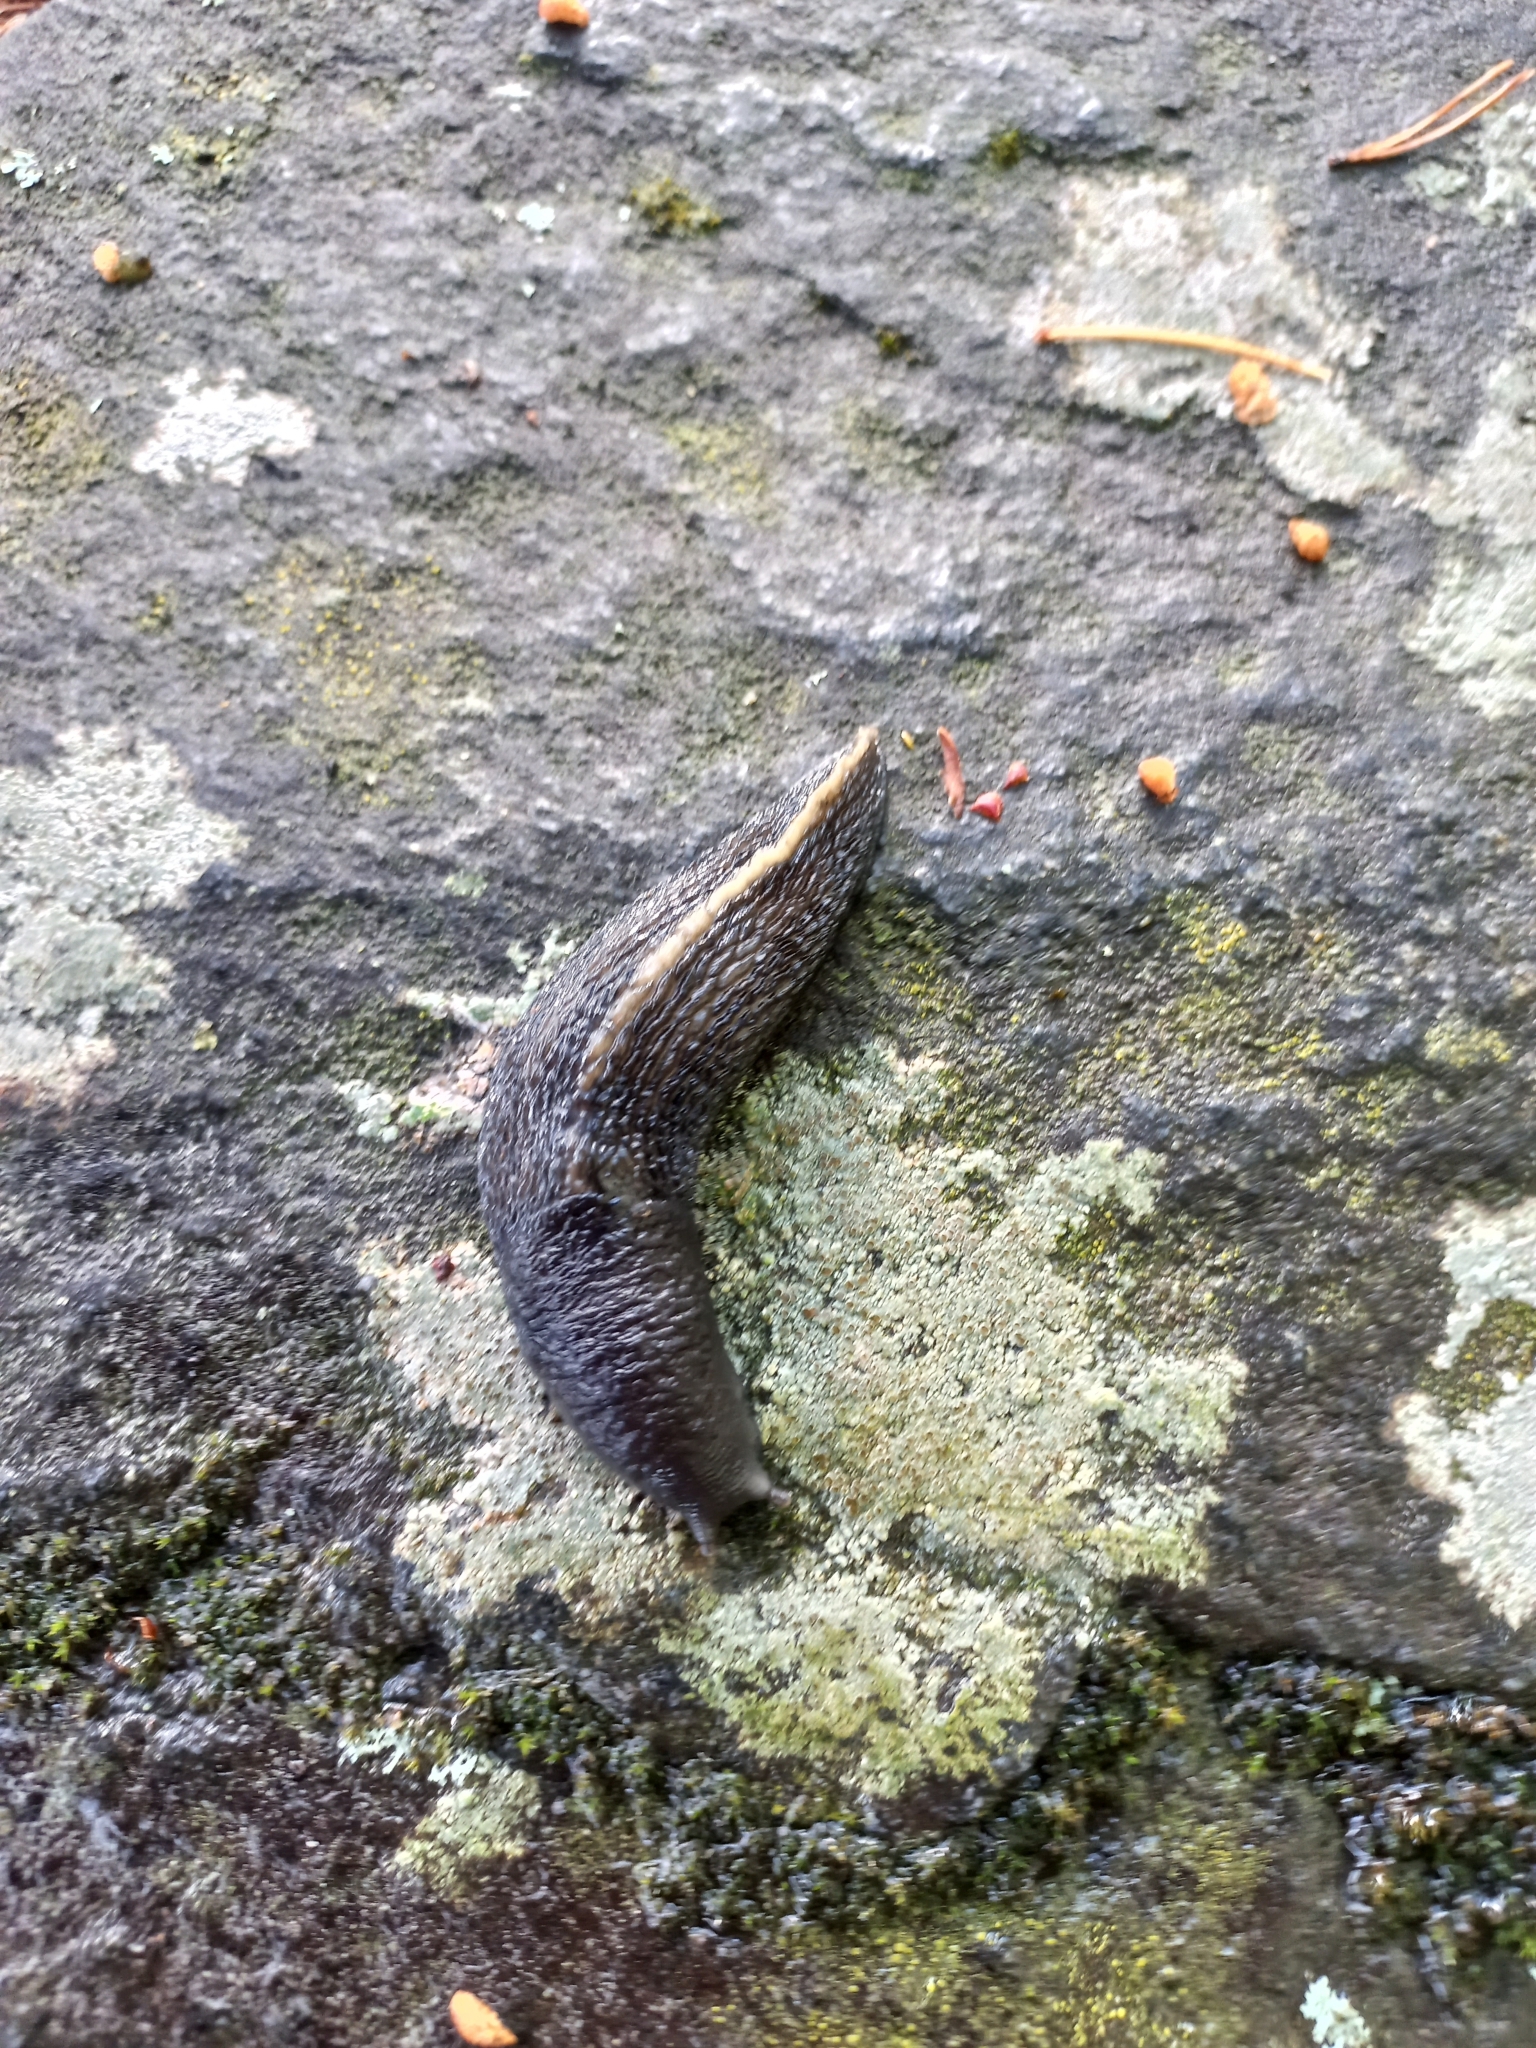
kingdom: Animalia
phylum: Mollusca
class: Gastropoda
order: Stylommatophora
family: Limacidae
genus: Limax
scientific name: Limax cinereoniger
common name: Ash-black slug
